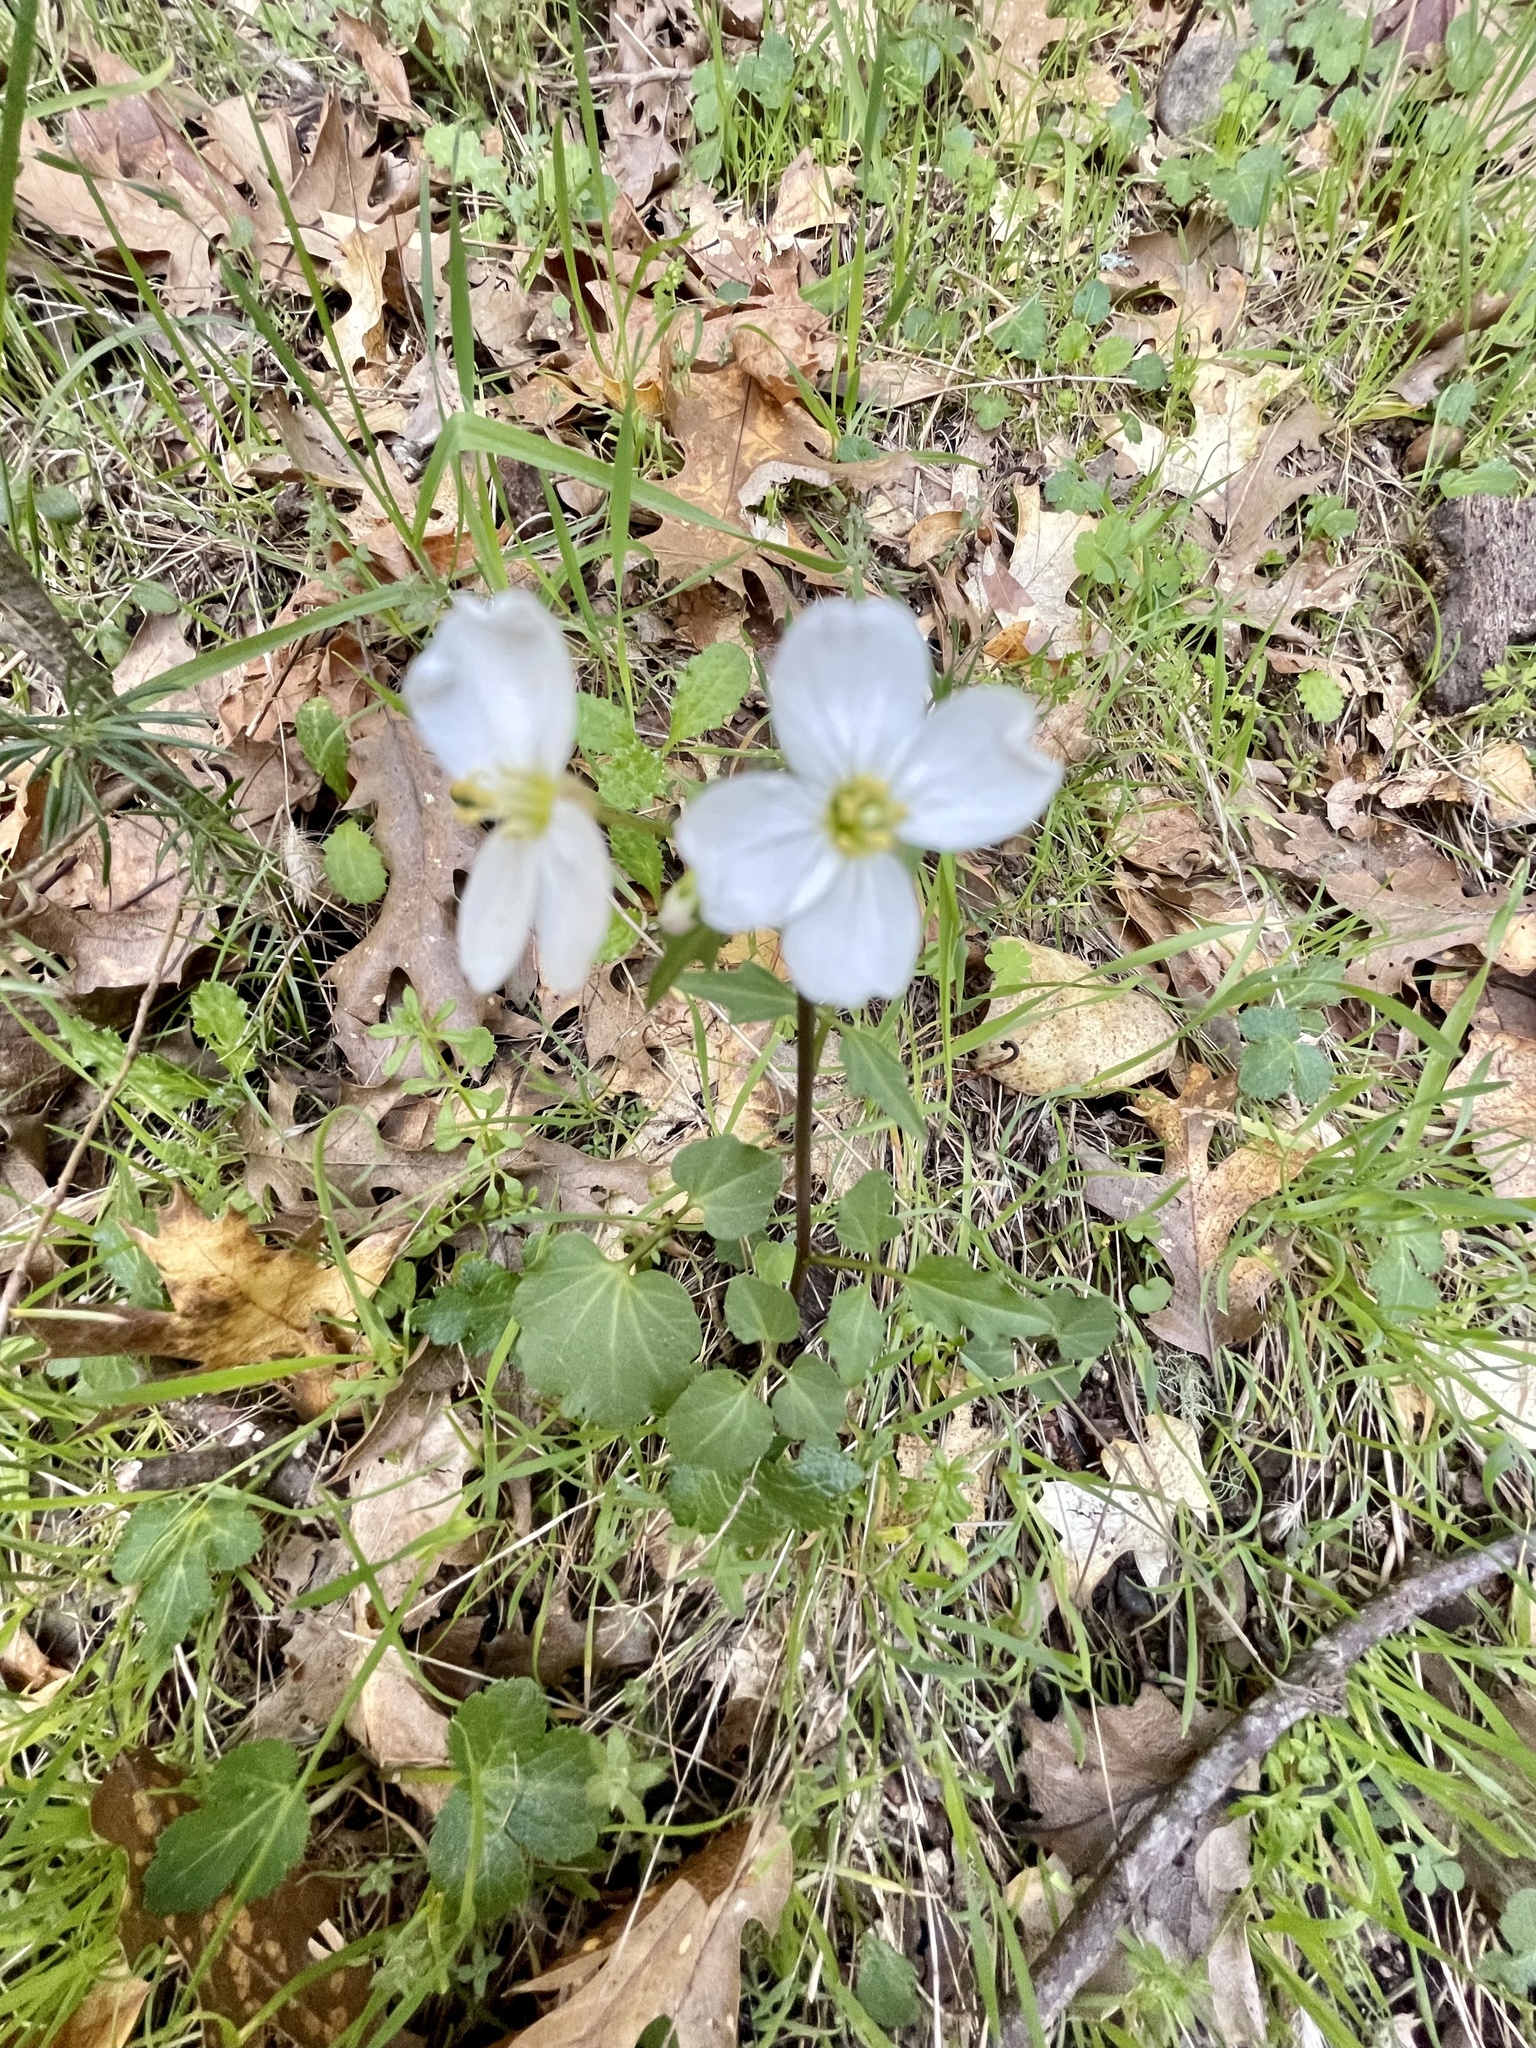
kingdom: Plantae
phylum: Tracheophyta
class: Magnoliopsida
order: Brassicales
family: Brassicaceae
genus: Cardamine
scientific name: Cardamine californica
